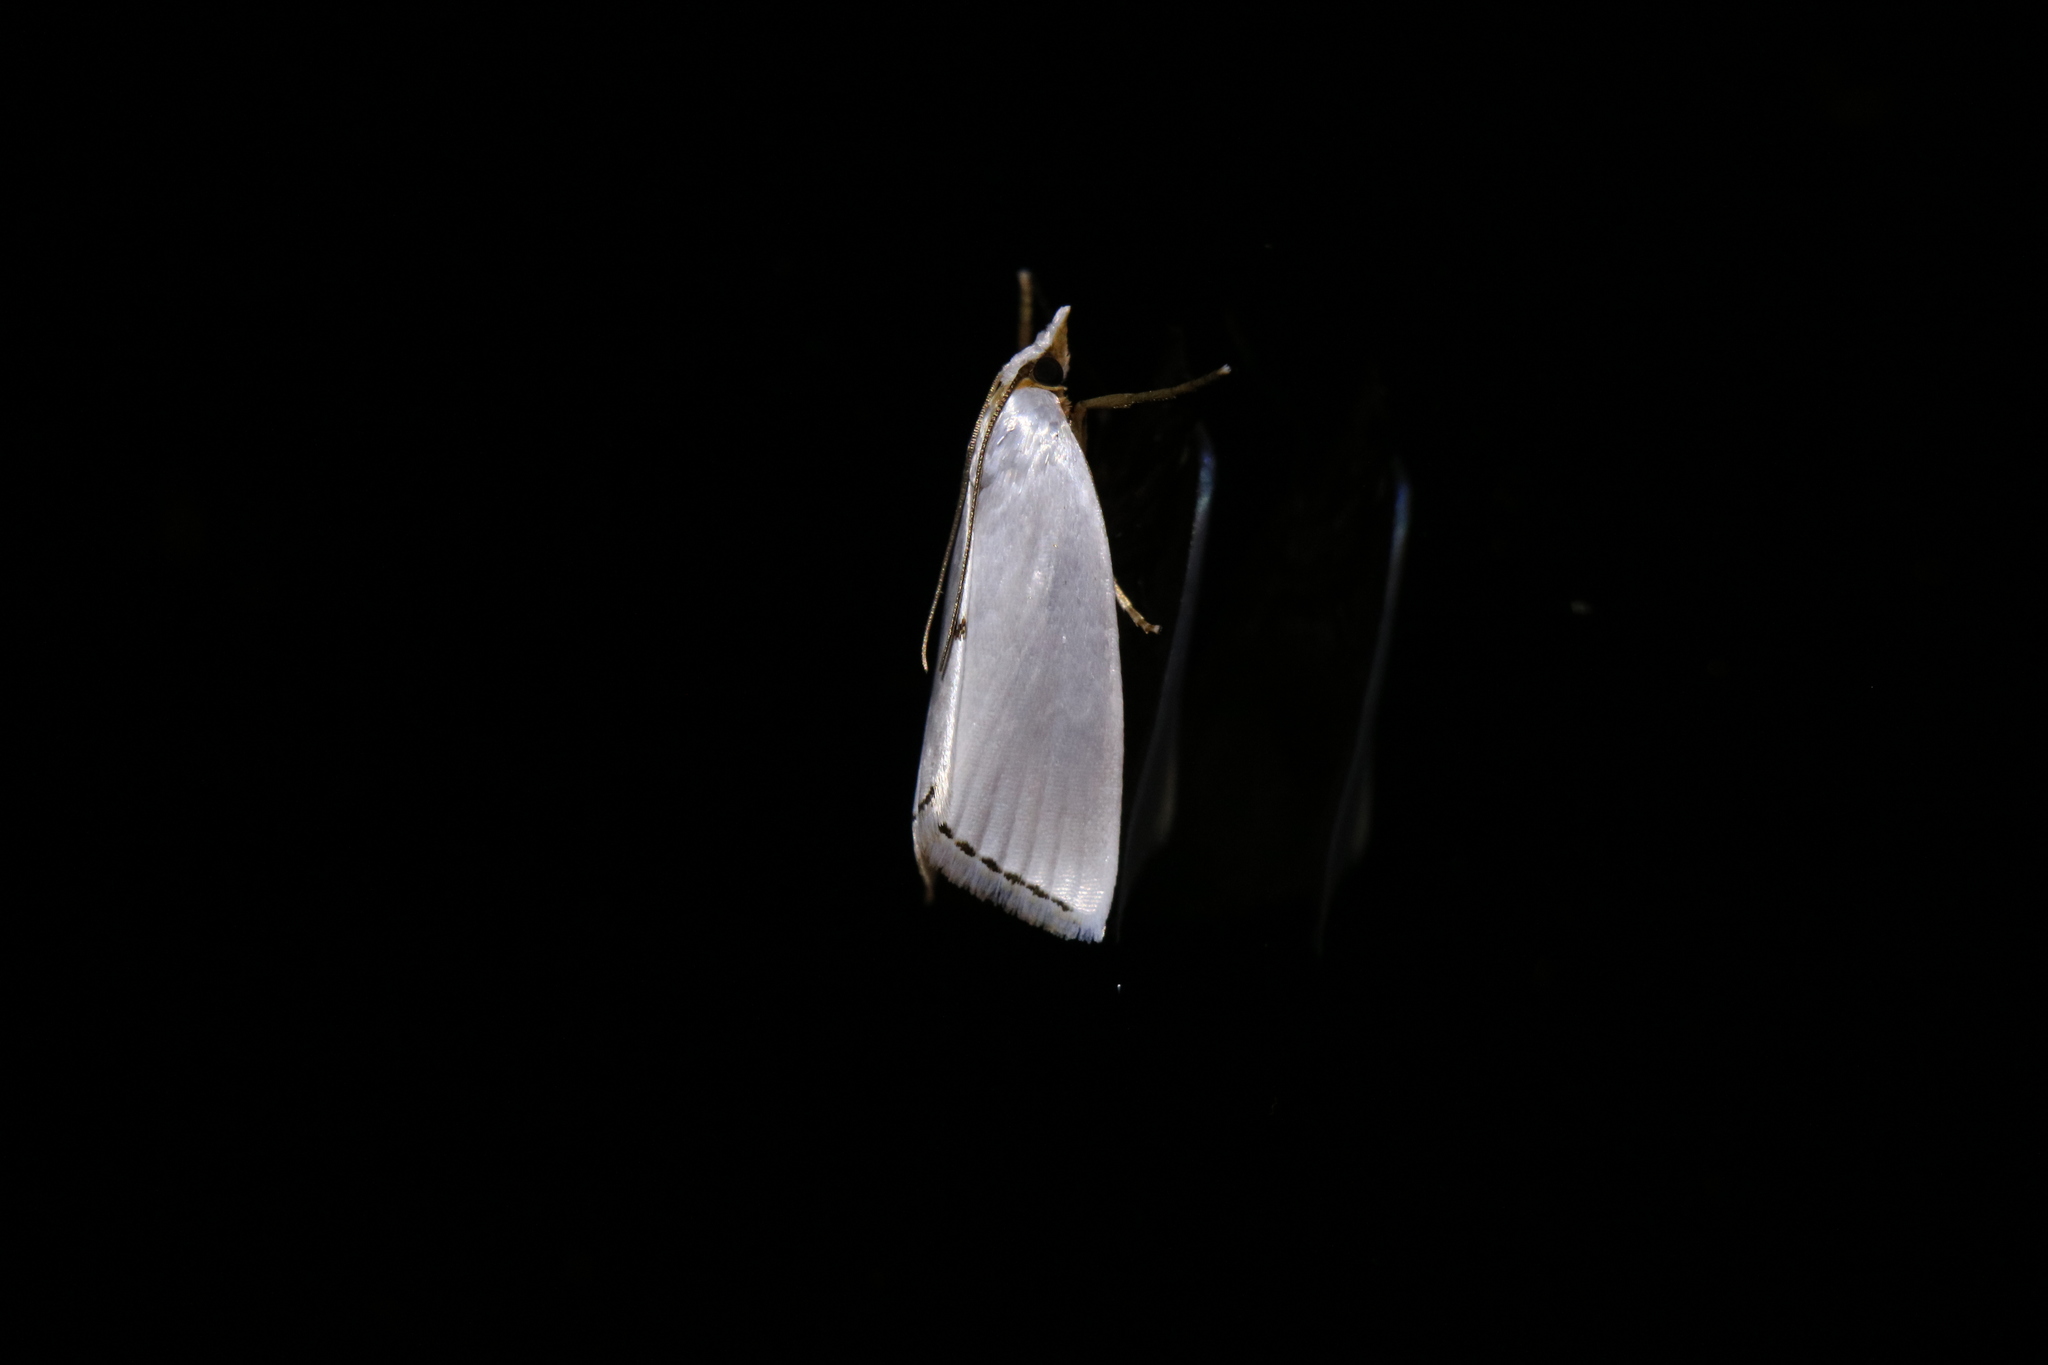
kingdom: Animalia
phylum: Arthropoda
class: Insecta
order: Lepidoptera
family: Crambidae
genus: Argyria
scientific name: Argyria nivalis
